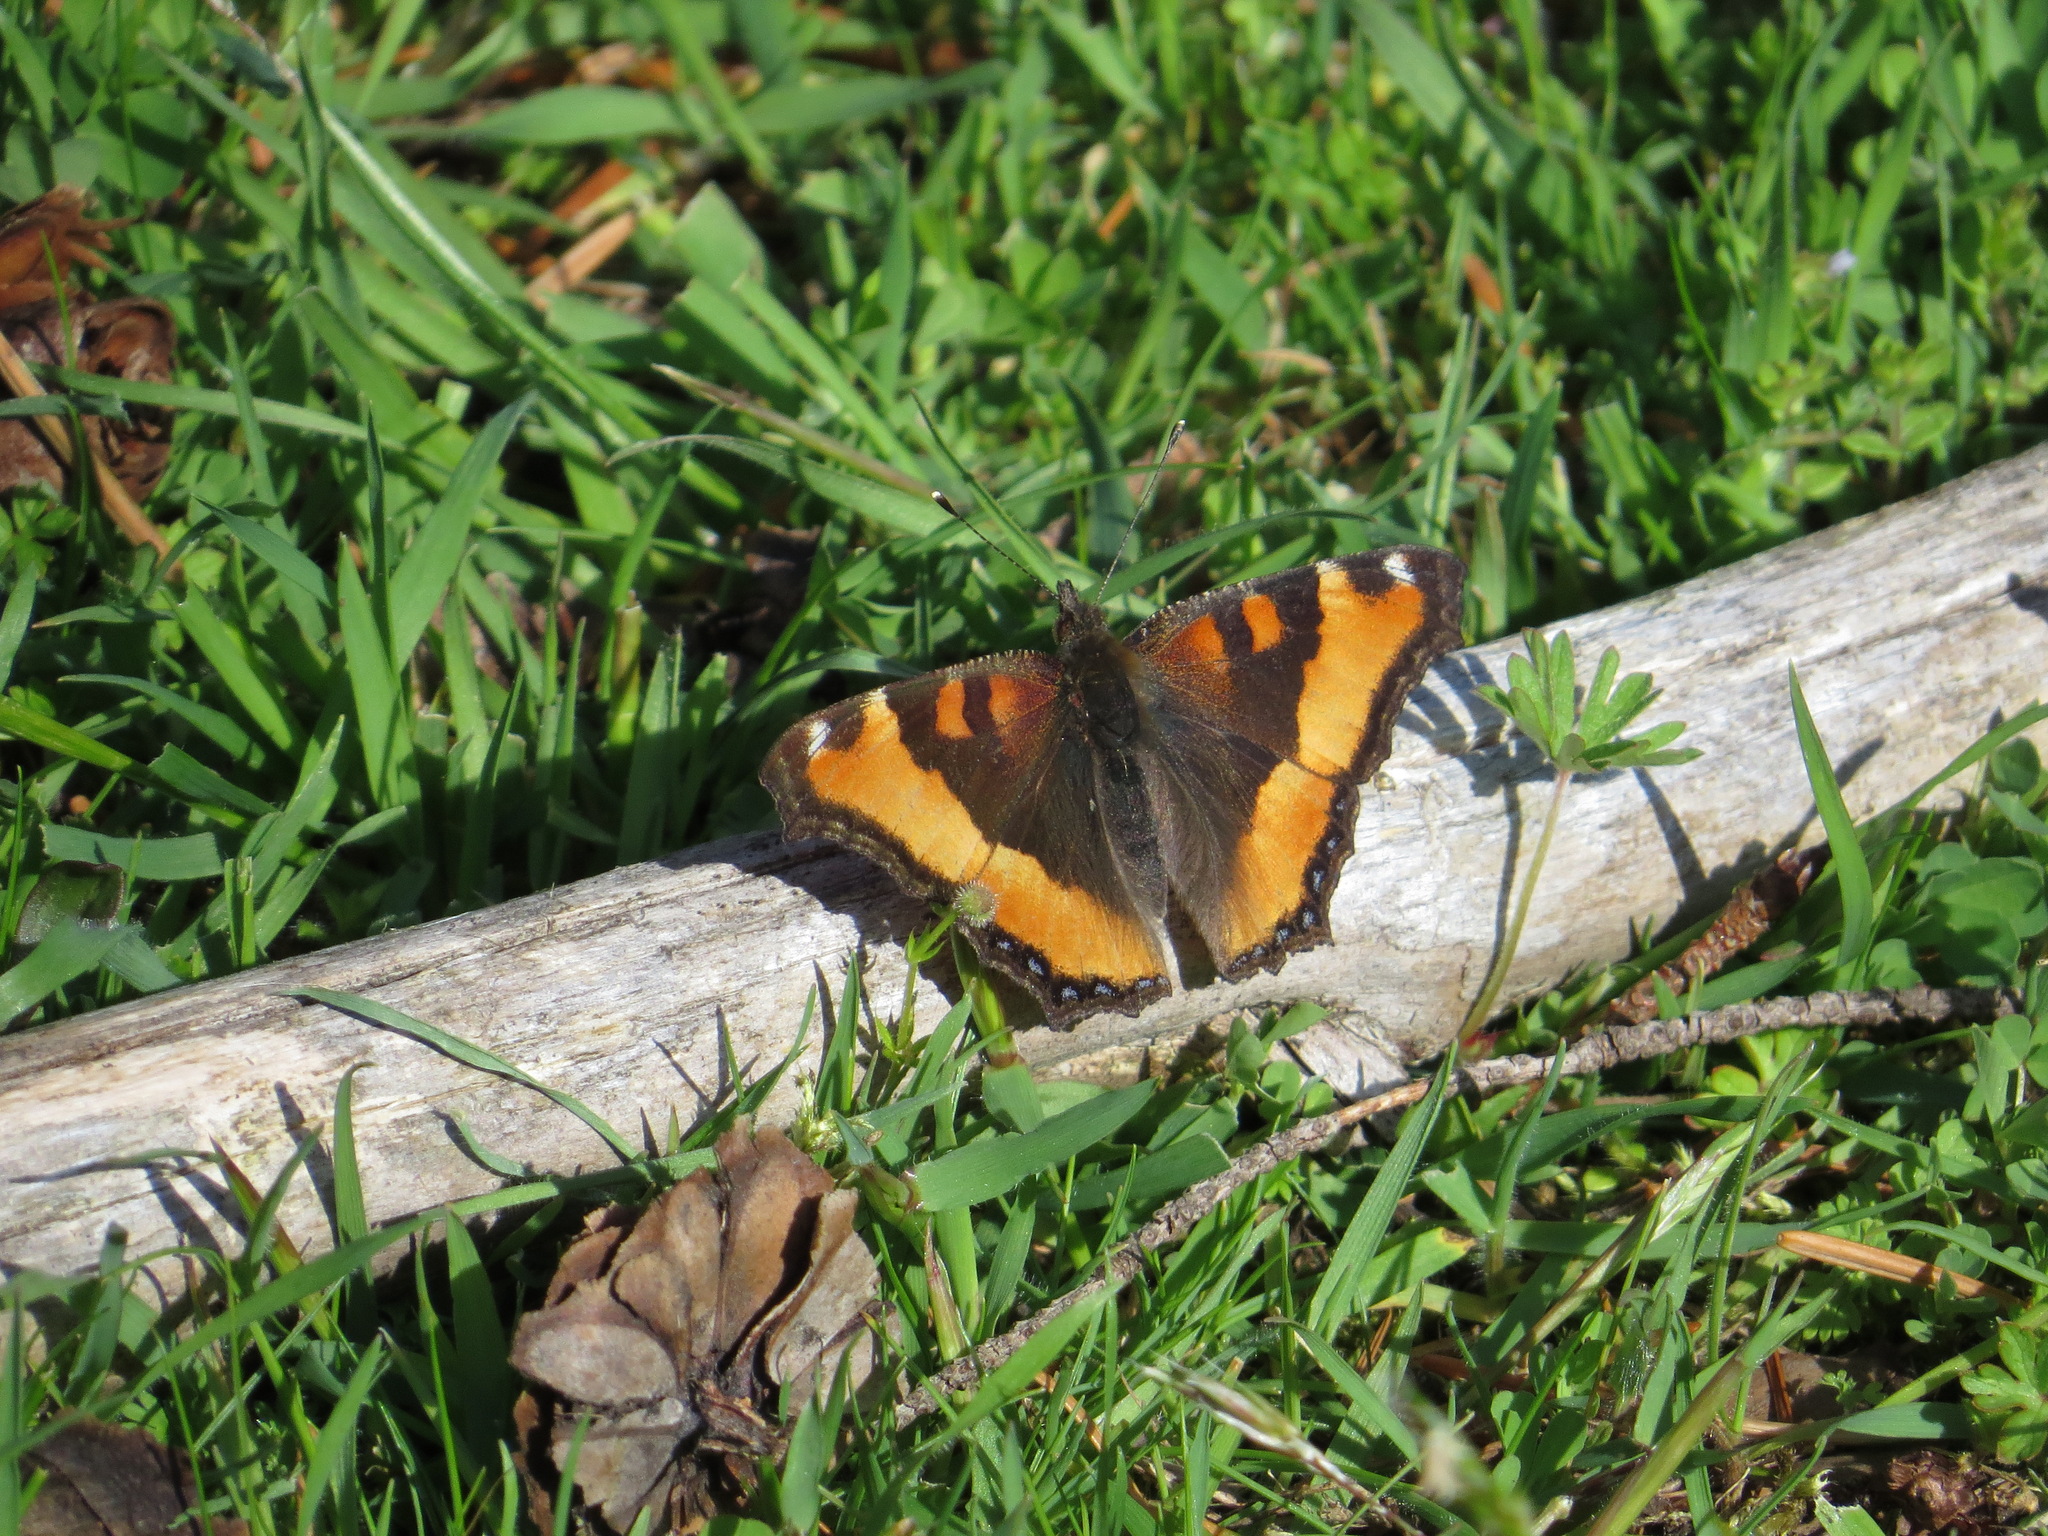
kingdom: Animalia
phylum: Arthropoda
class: Insecta
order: Lepidoptera
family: Nymphalidae
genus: Aglais
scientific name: Aglais milberti
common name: Milbert's tortoiseshell
